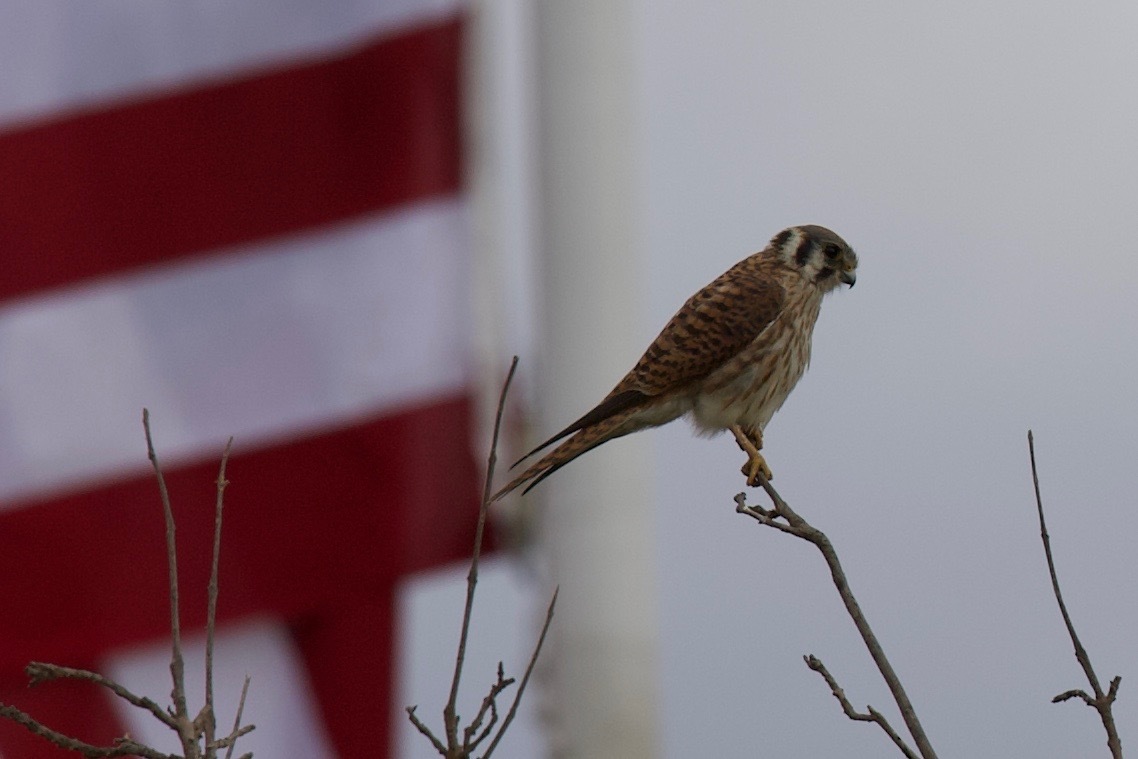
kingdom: Animalia
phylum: Chordata
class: Aves
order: Falconiformes
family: Falconidae
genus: Falco
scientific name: Falco sparverius
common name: American kestrel
